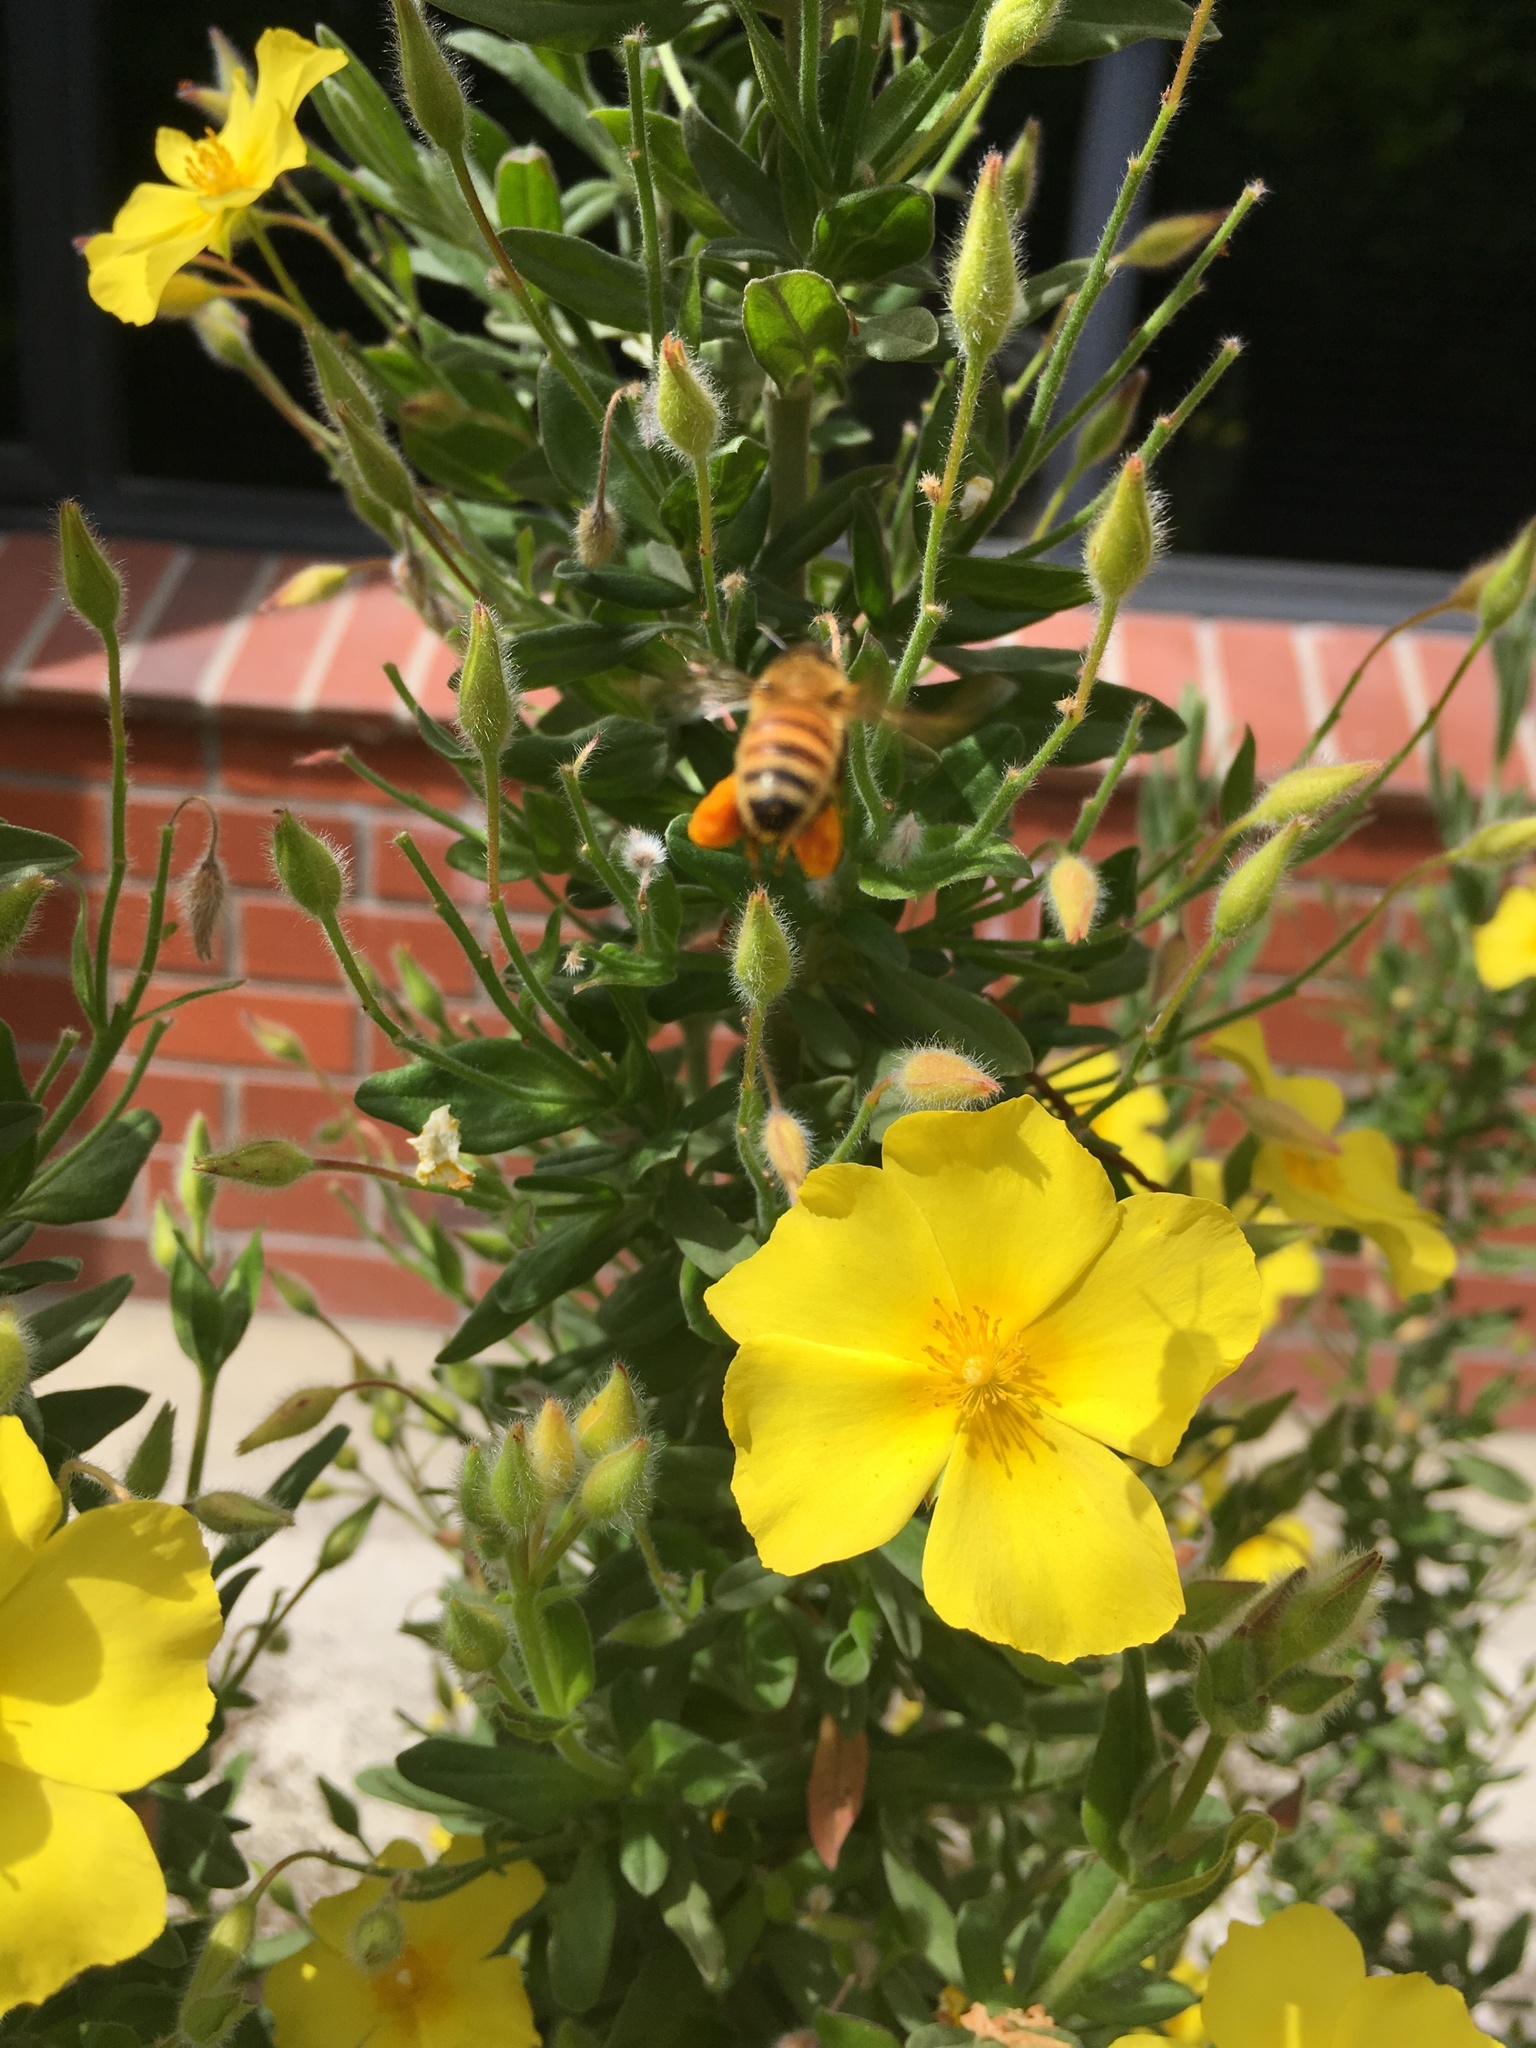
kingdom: Animalia
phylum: Arthropoda
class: Insecta
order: Hymenoptera
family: Apidae
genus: Apis
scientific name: Apis mellifera
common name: Honey bee
